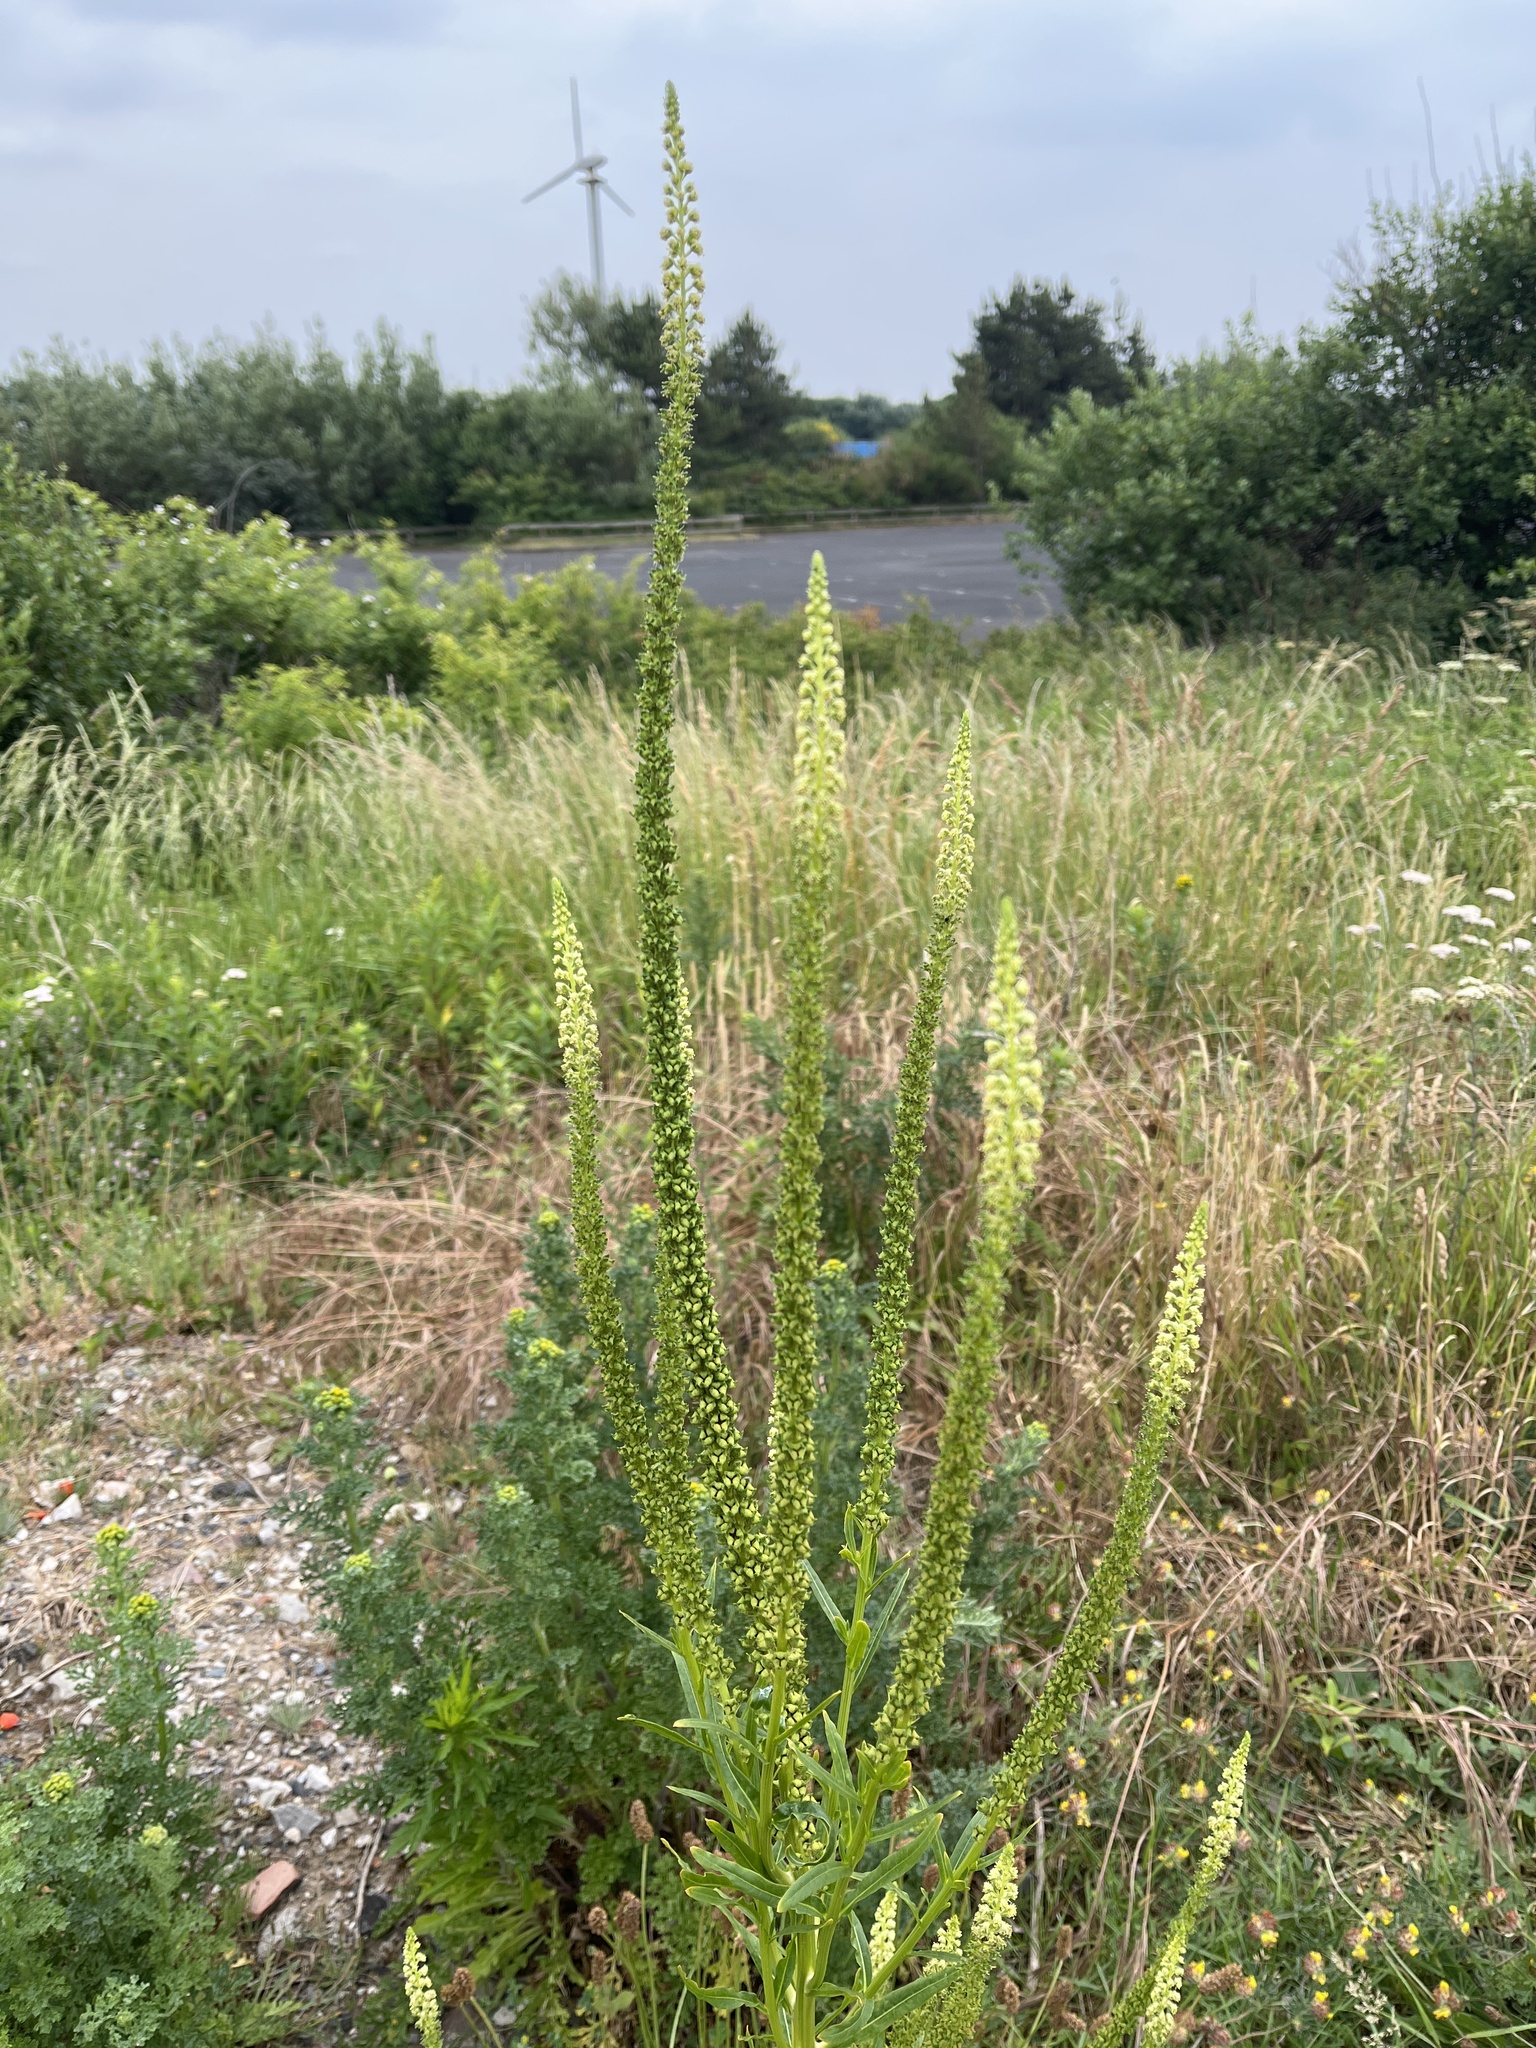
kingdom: Plantae
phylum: Tracheophyta
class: Magnoliopsida
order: Brassicales
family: Resedaceae
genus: Reseda
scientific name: Reseda luteola
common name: Weld
